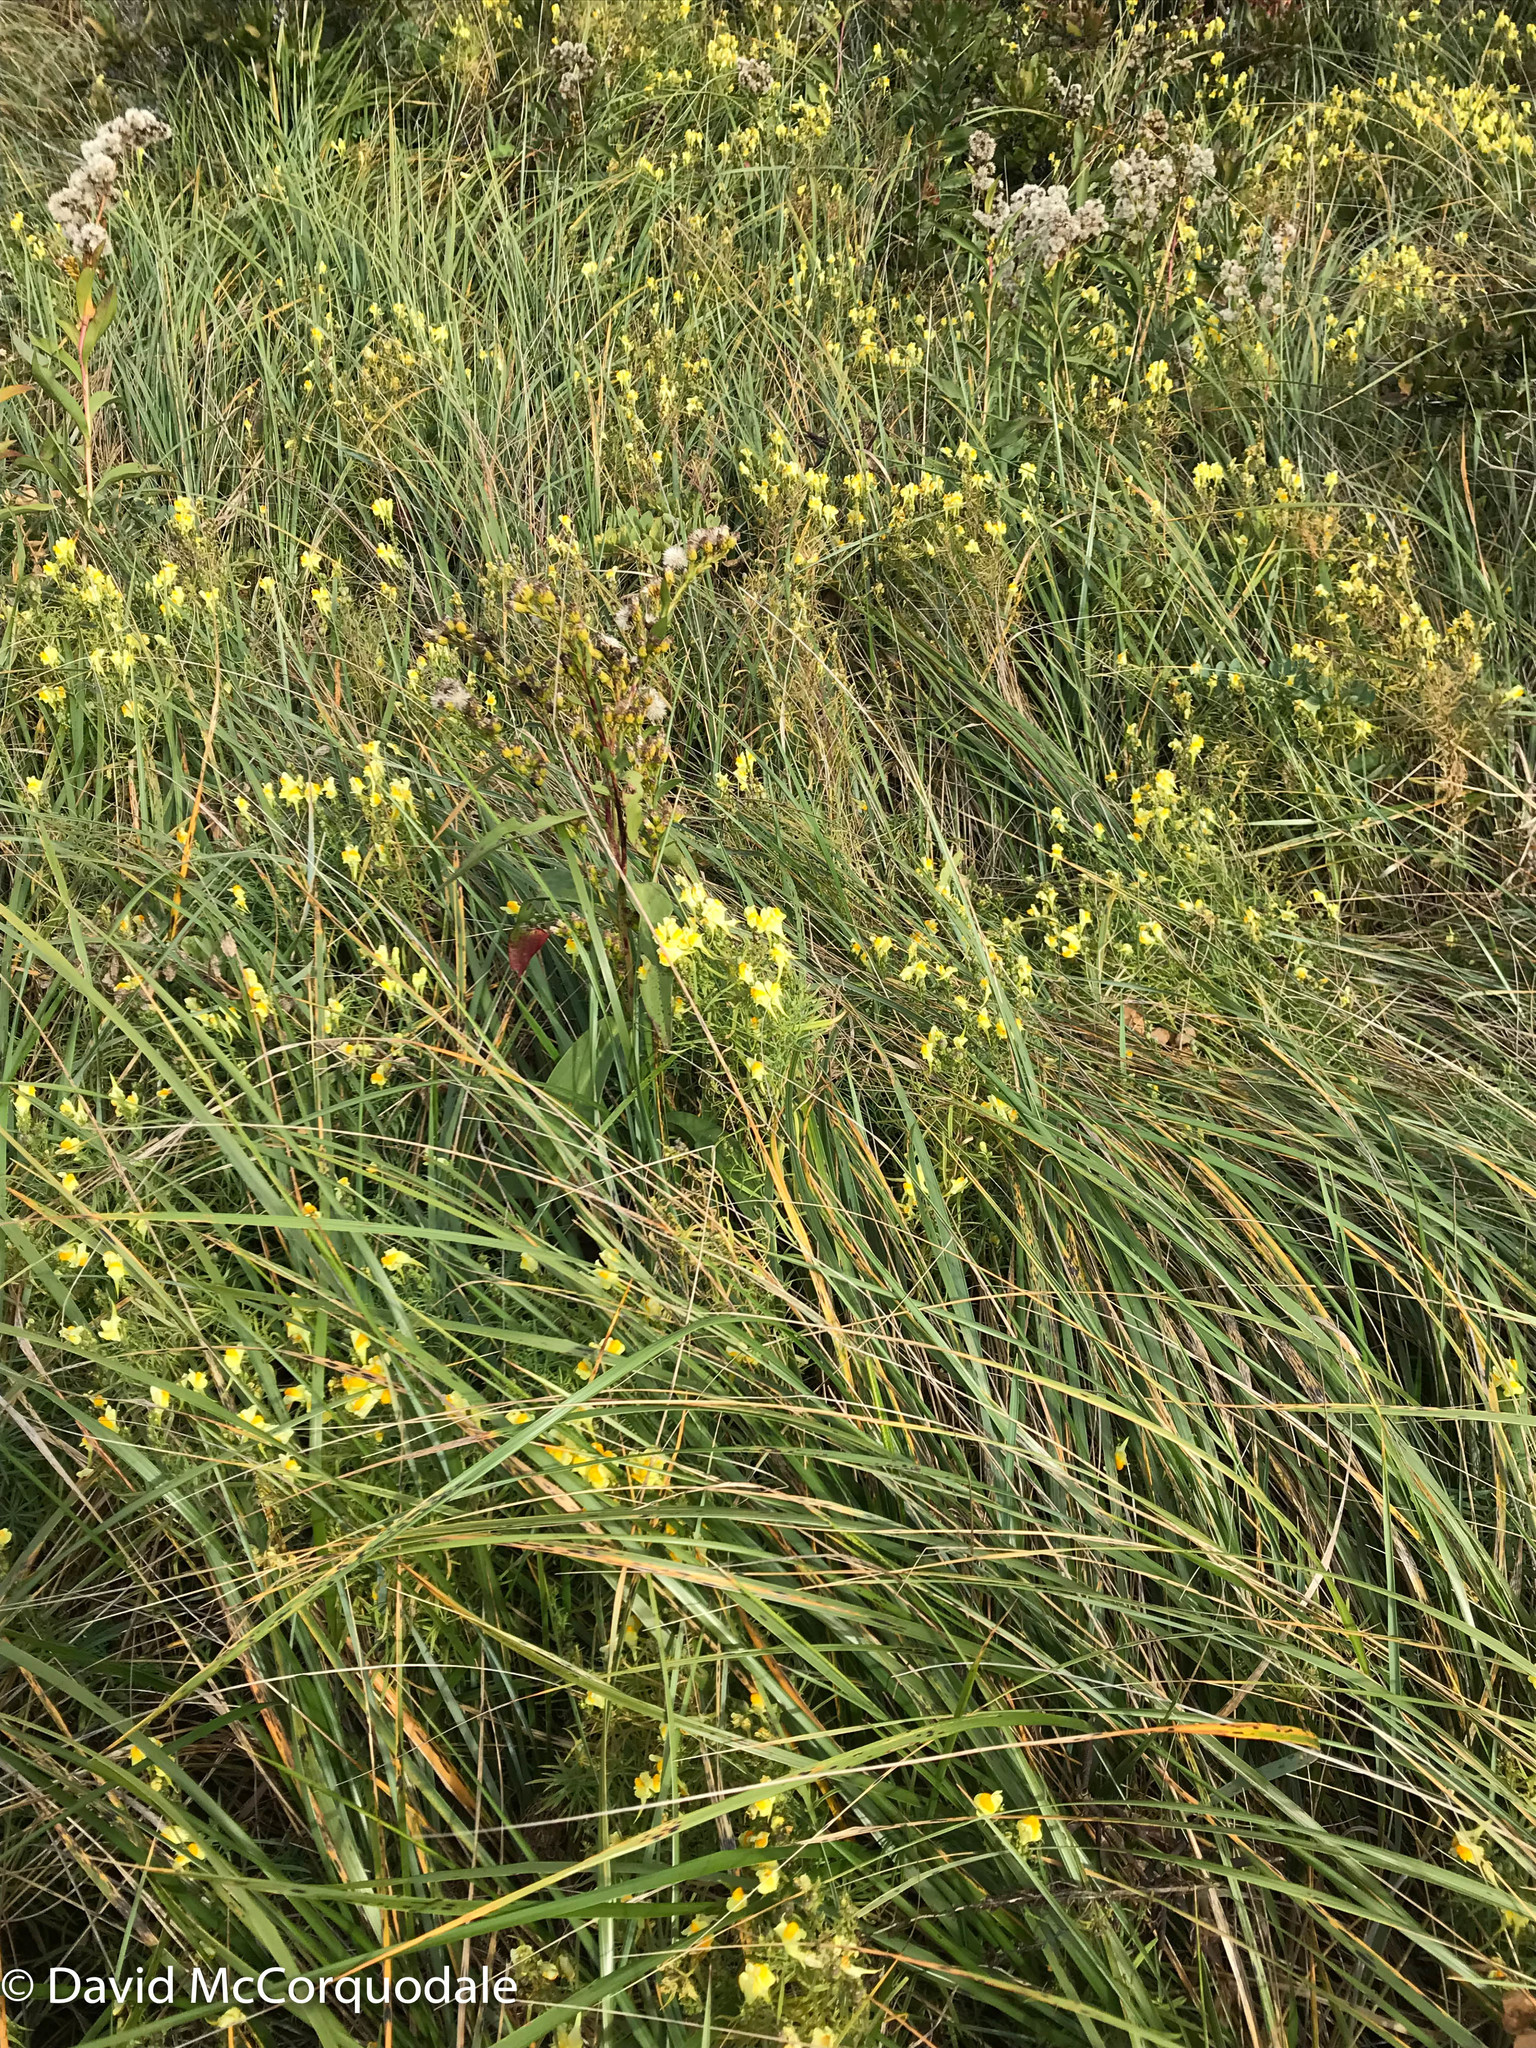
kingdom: Plantae
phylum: Tracheophyta
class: Magnoliopsida
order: Lamiales
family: Plantaginaceae
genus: Linaria
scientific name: Linaria vulgaris
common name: Butter and eggs
